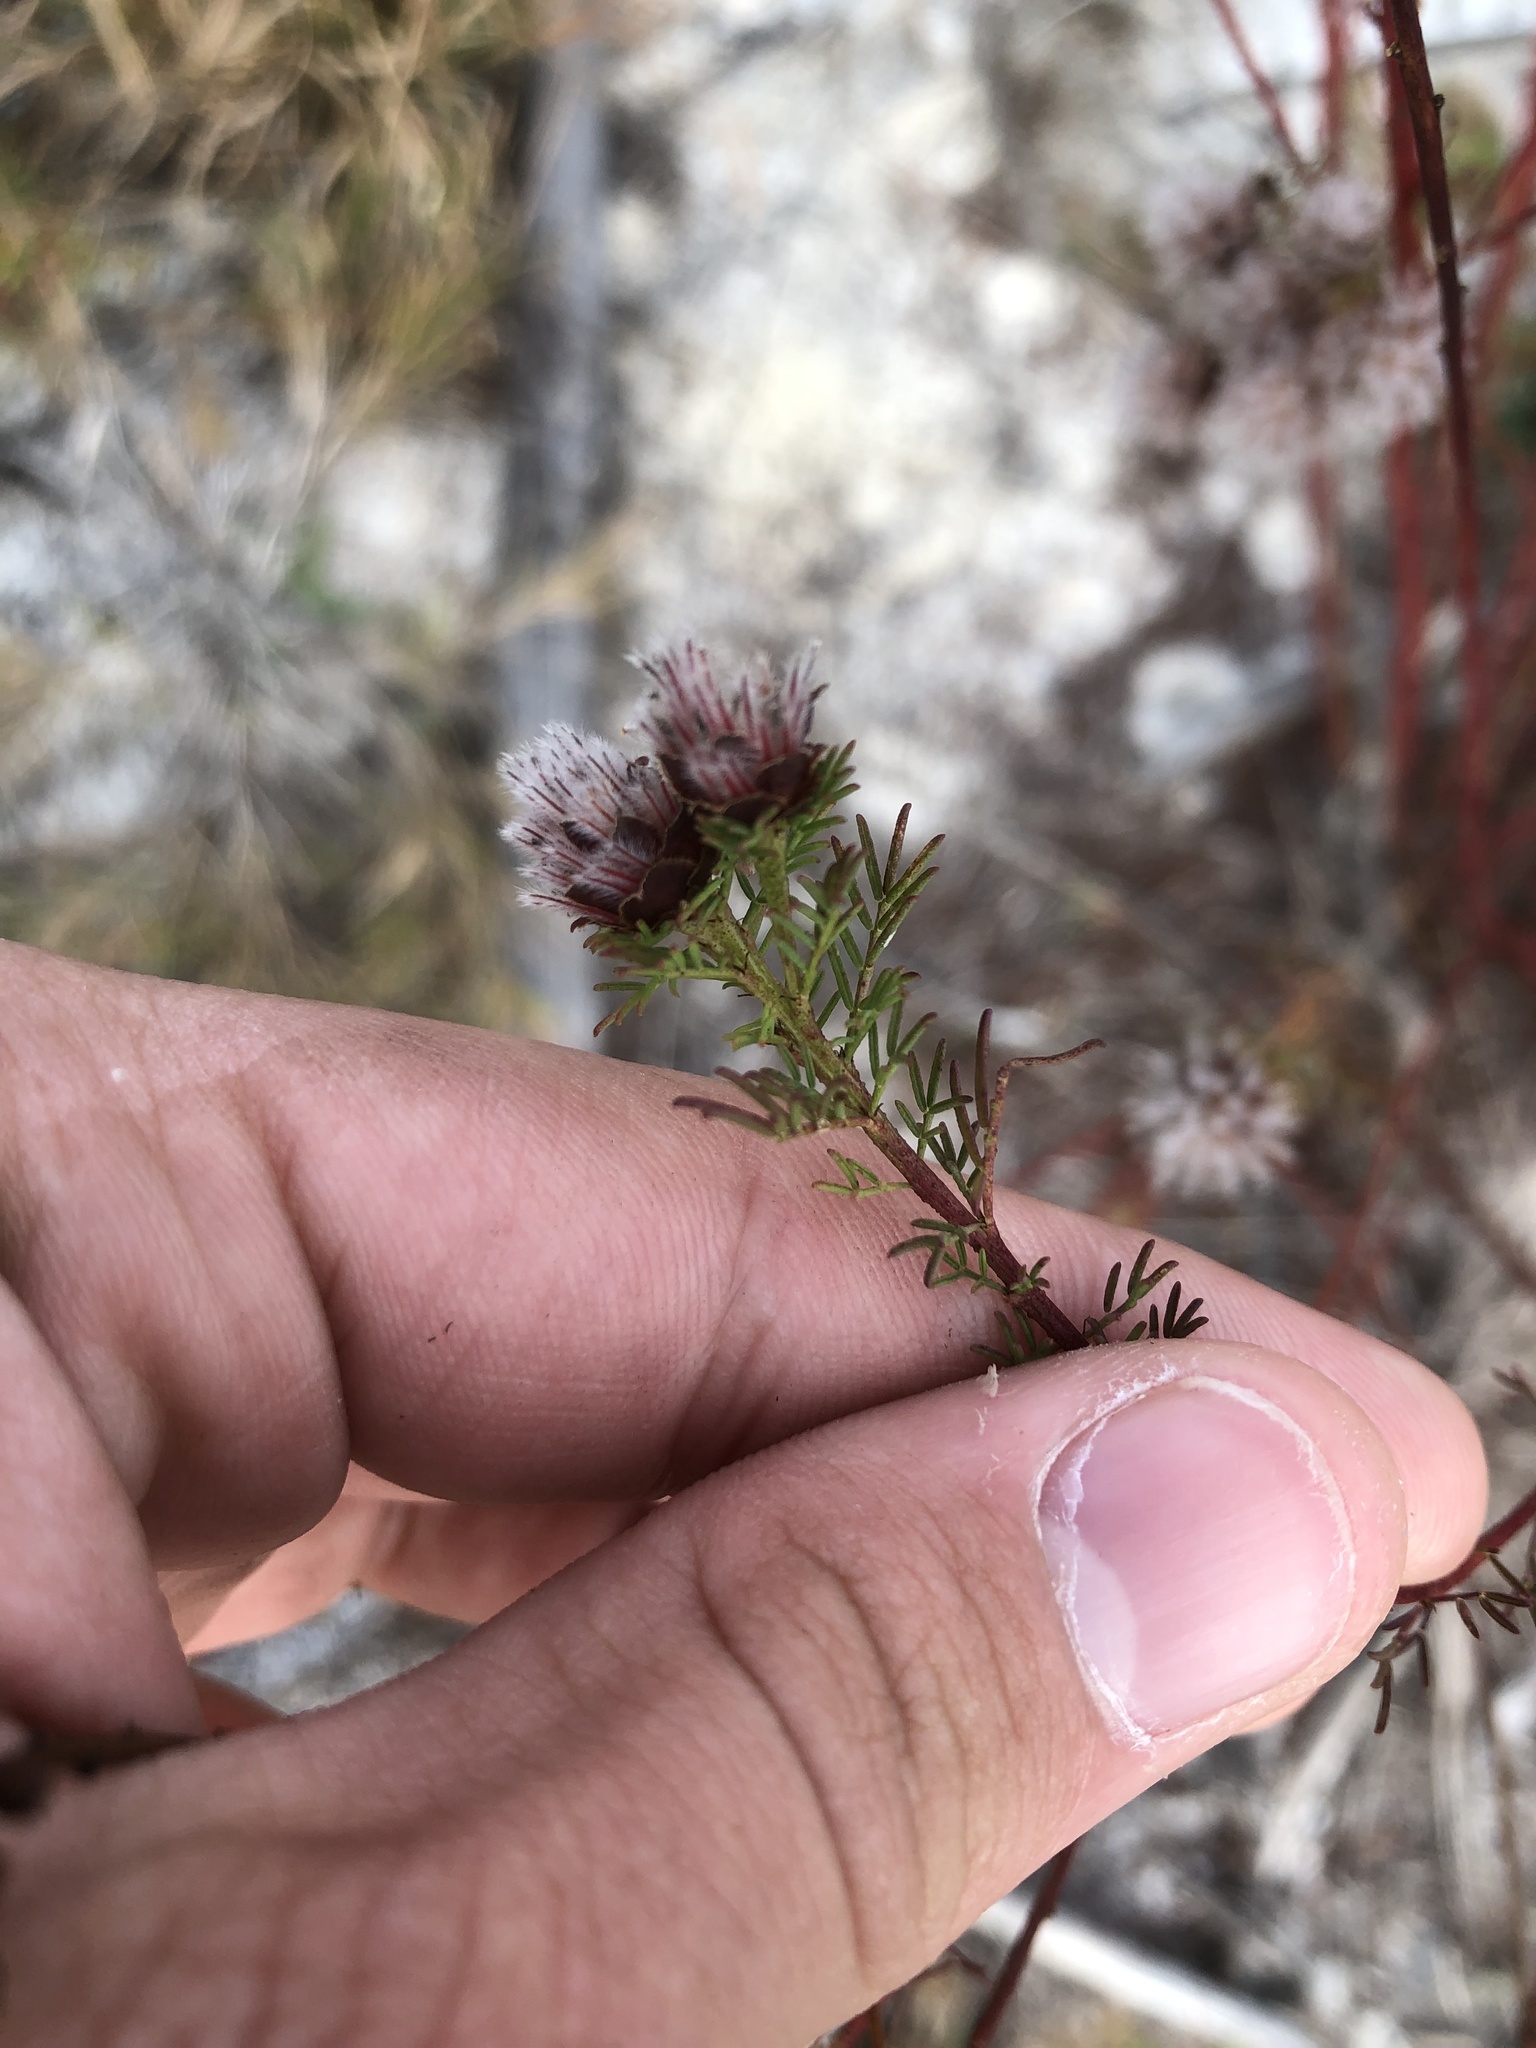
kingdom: Plantae
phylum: Tracheophyta
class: Magnoliopsida
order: Fabales
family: Fabaceae
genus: Dalea
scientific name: Dalea pinnata
